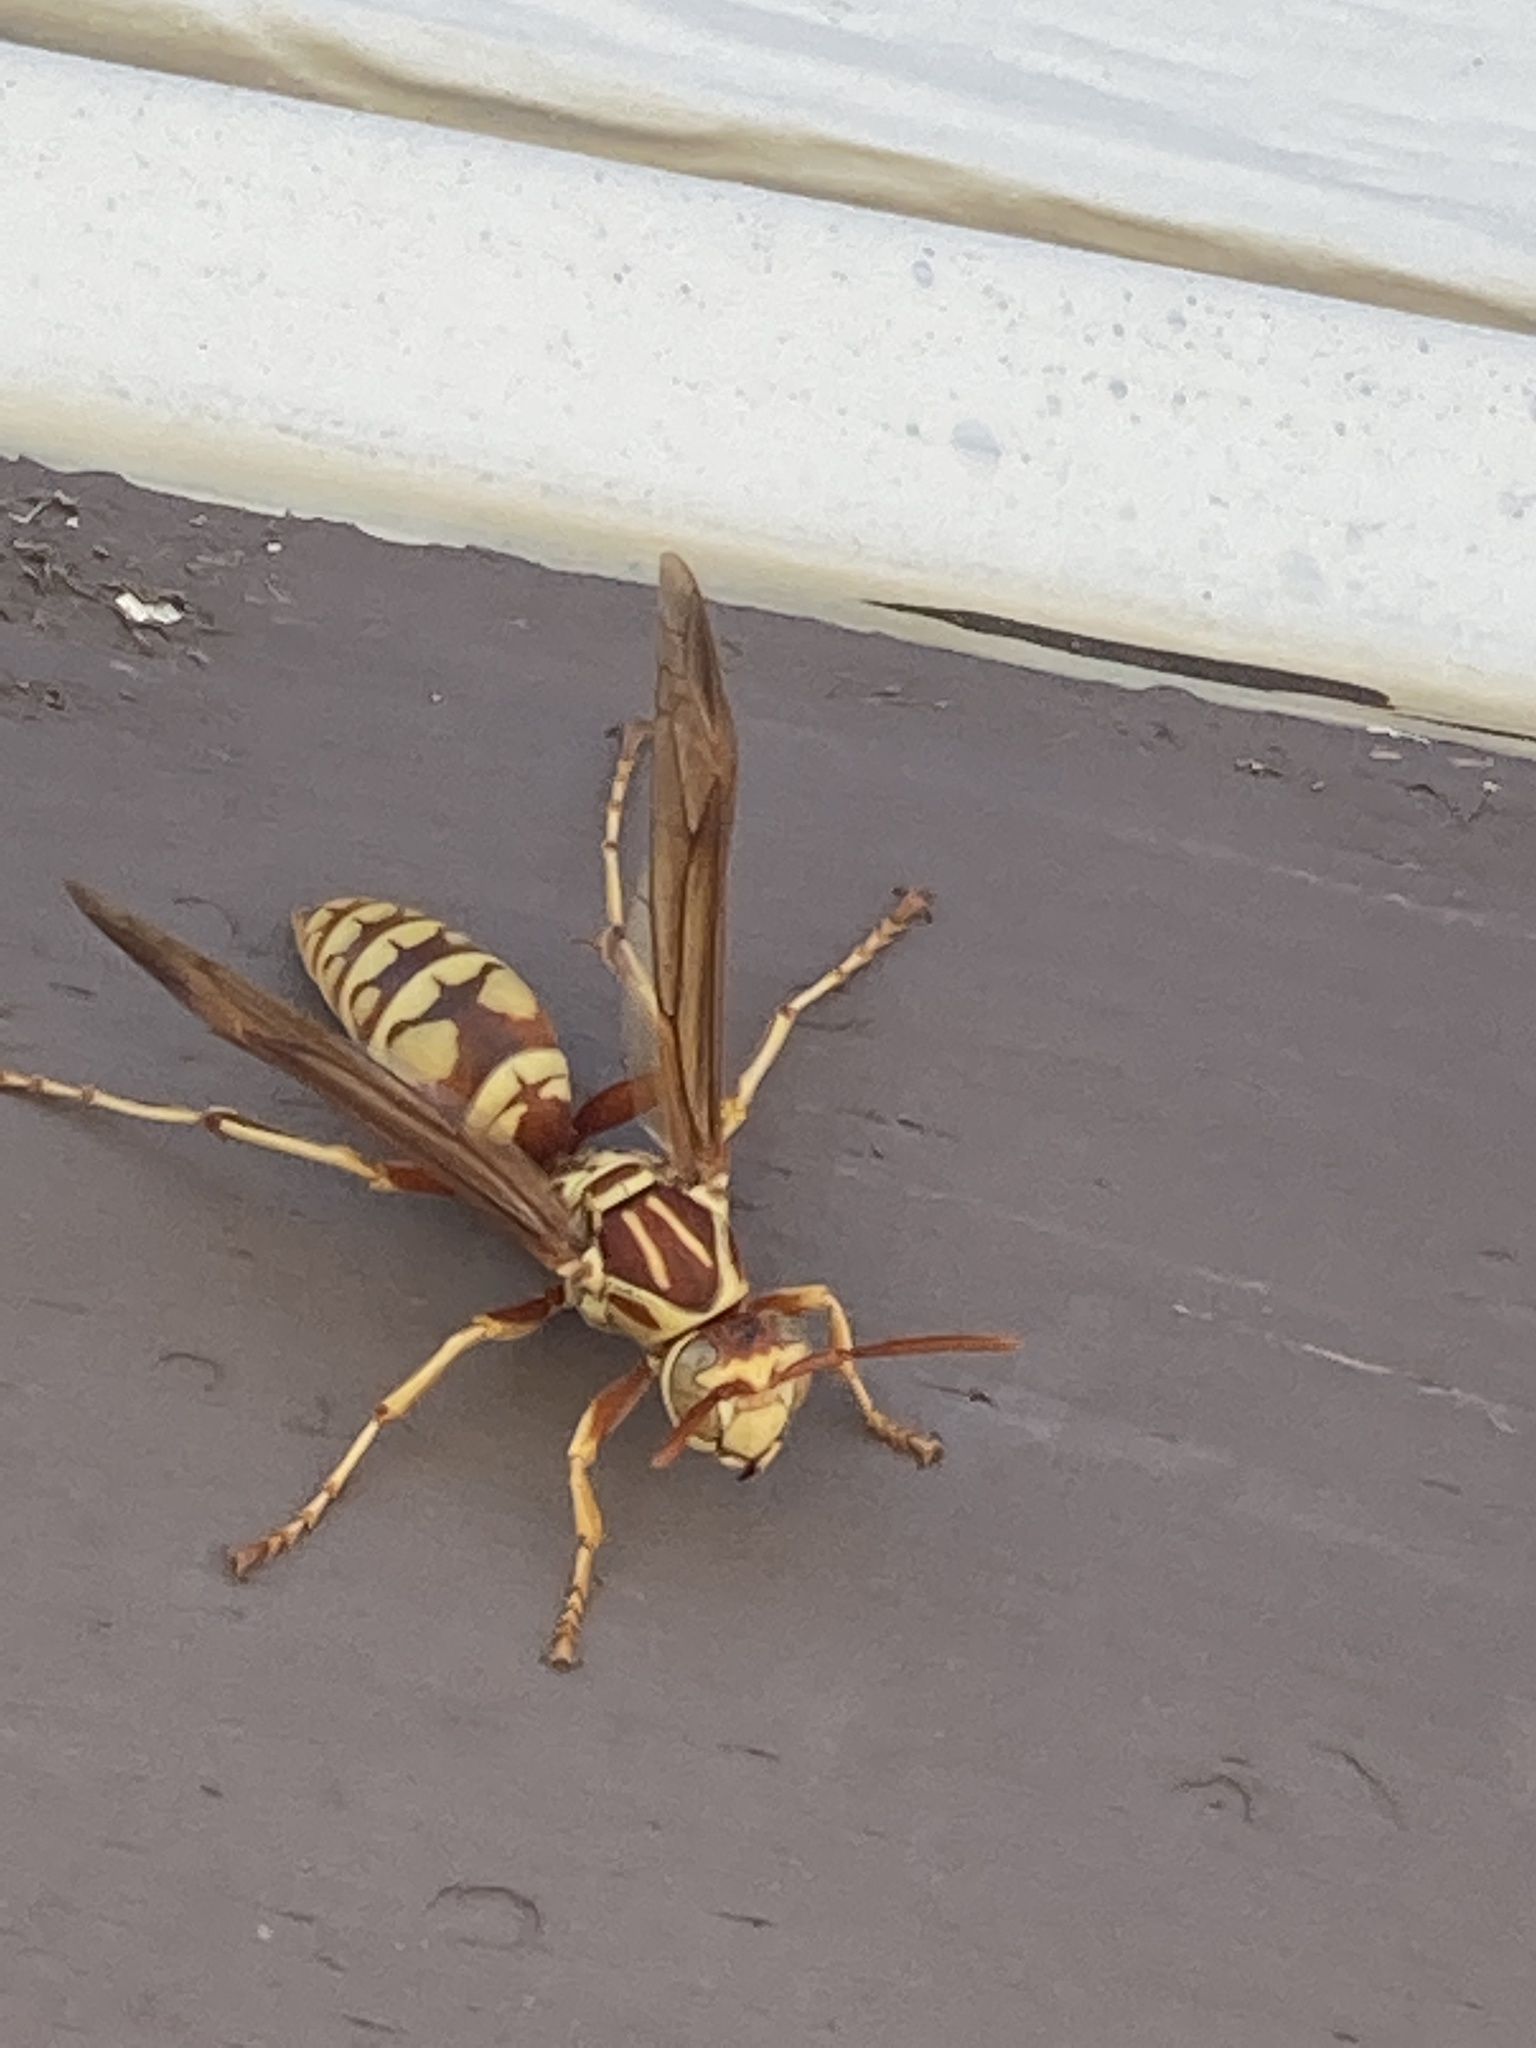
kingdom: Animalia
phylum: Arthropoda
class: Insecta
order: Hymenoptera
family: Eumenidae
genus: Polistes
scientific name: Polistes apachus
